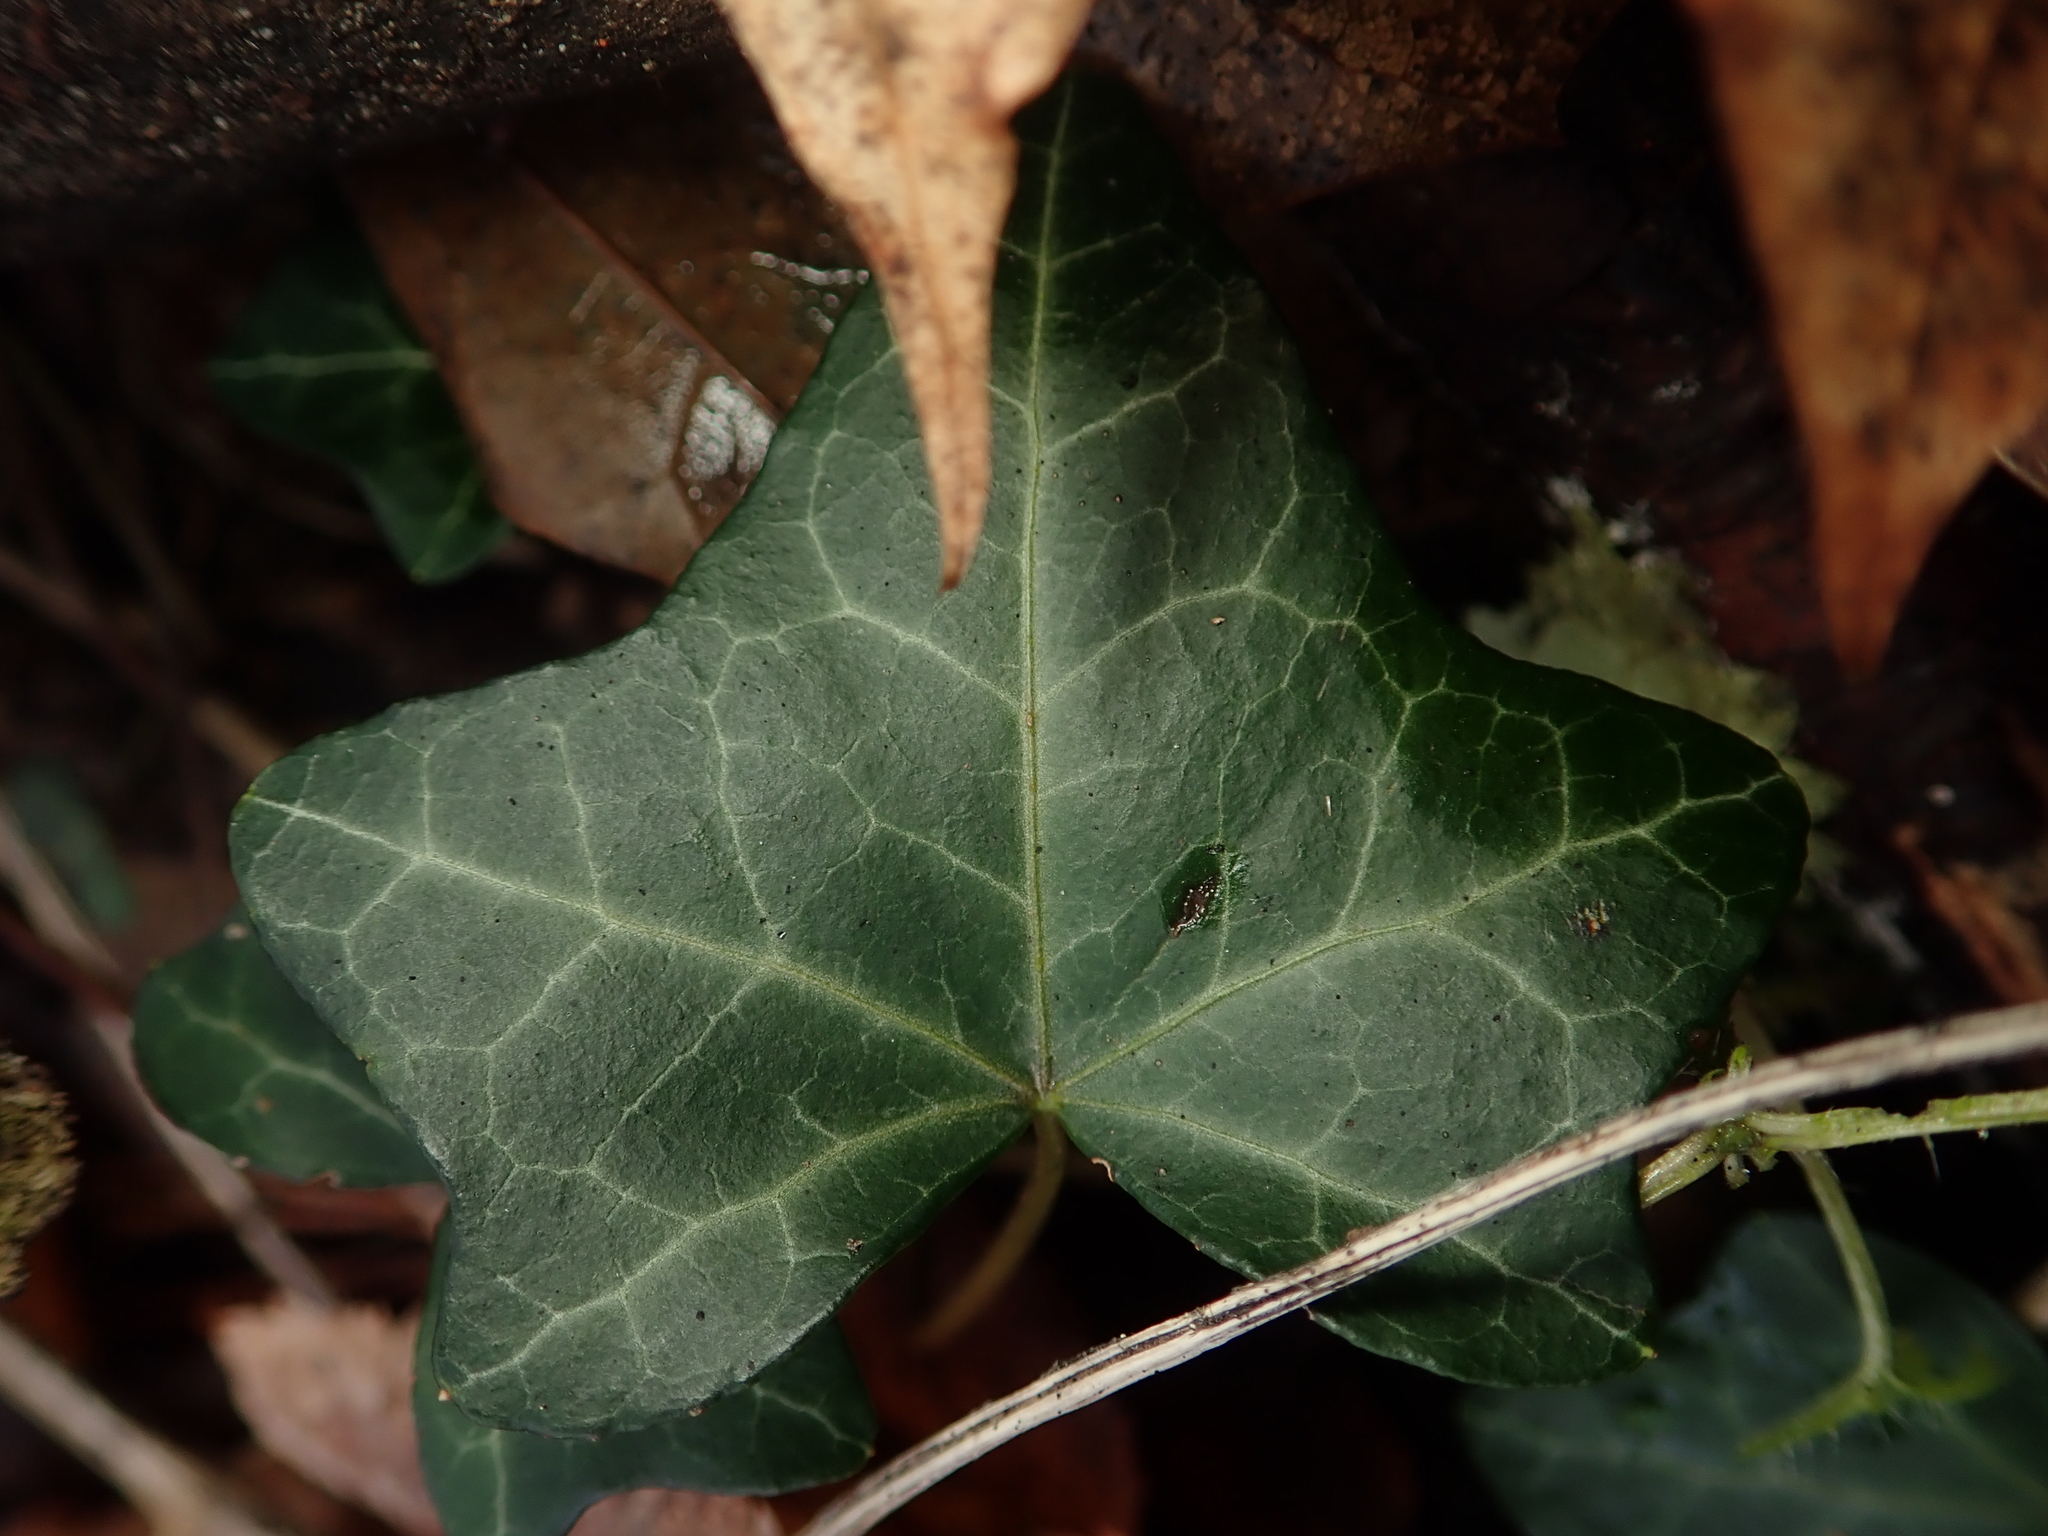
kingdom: Plantae
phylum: Tracheophyta
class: Magnoliopsida
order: Apiales
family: Araliaceae
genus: Hedera
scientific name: Hedera helix
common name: Ivy
